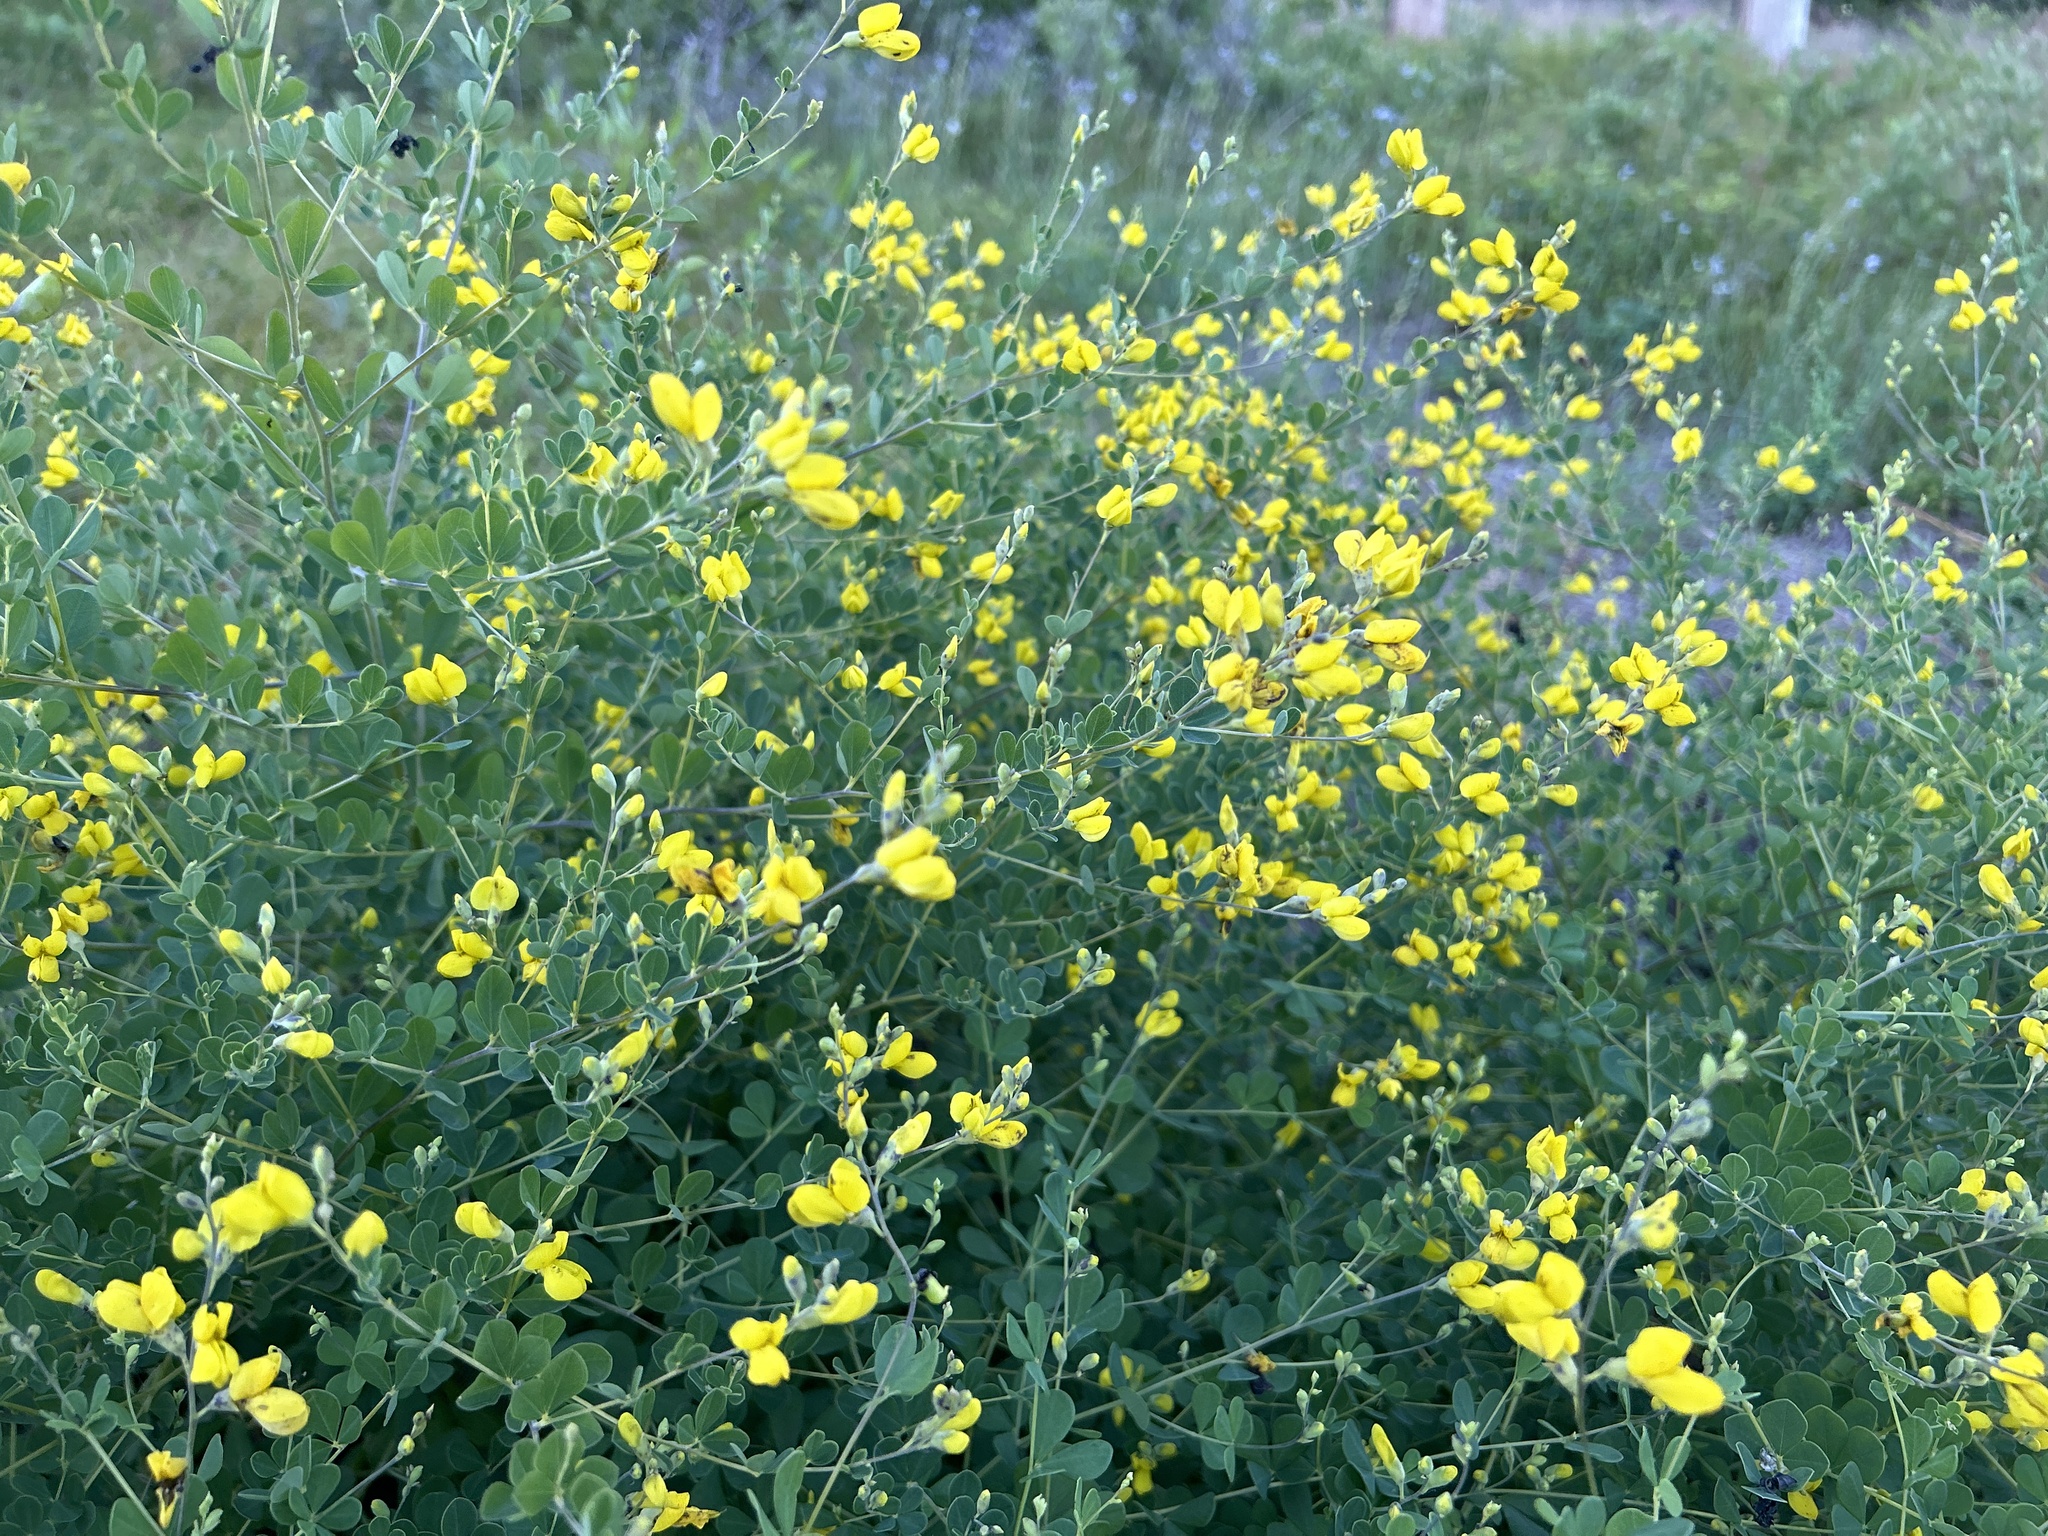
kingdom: Plantae
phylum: Tracheophyta
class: Magnoliopsida
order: Fabales
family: Fabaceae
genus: Baptisia
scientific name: Baptisia tinctoria
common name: Wild indigo
